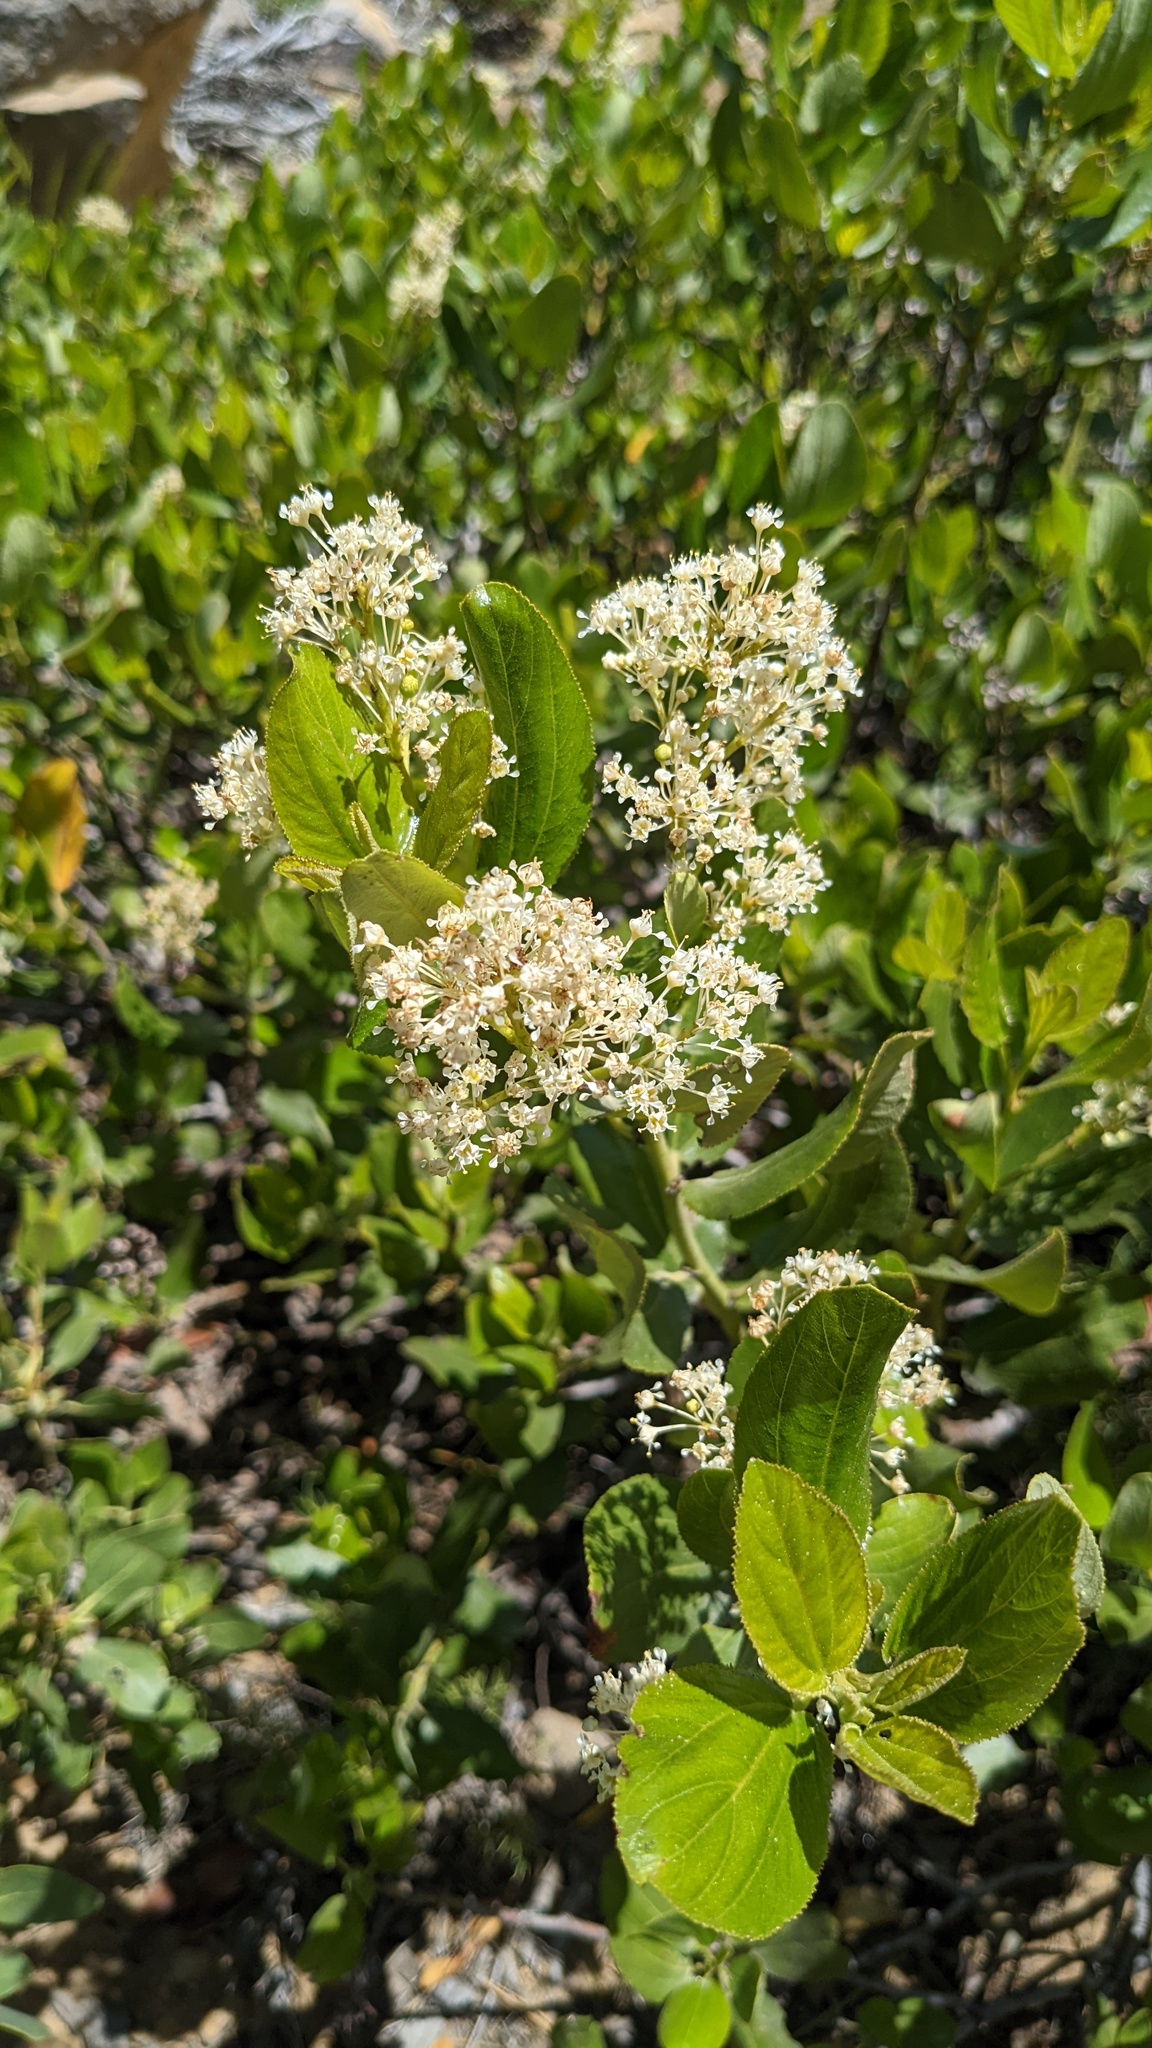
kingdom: Plantae
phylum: Tracheophyta
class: Magnoliopsida
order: Rosales
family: Rhamnaceae
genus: Ceanothus
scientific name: Ceanothus velutinus
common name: Snowbrush
